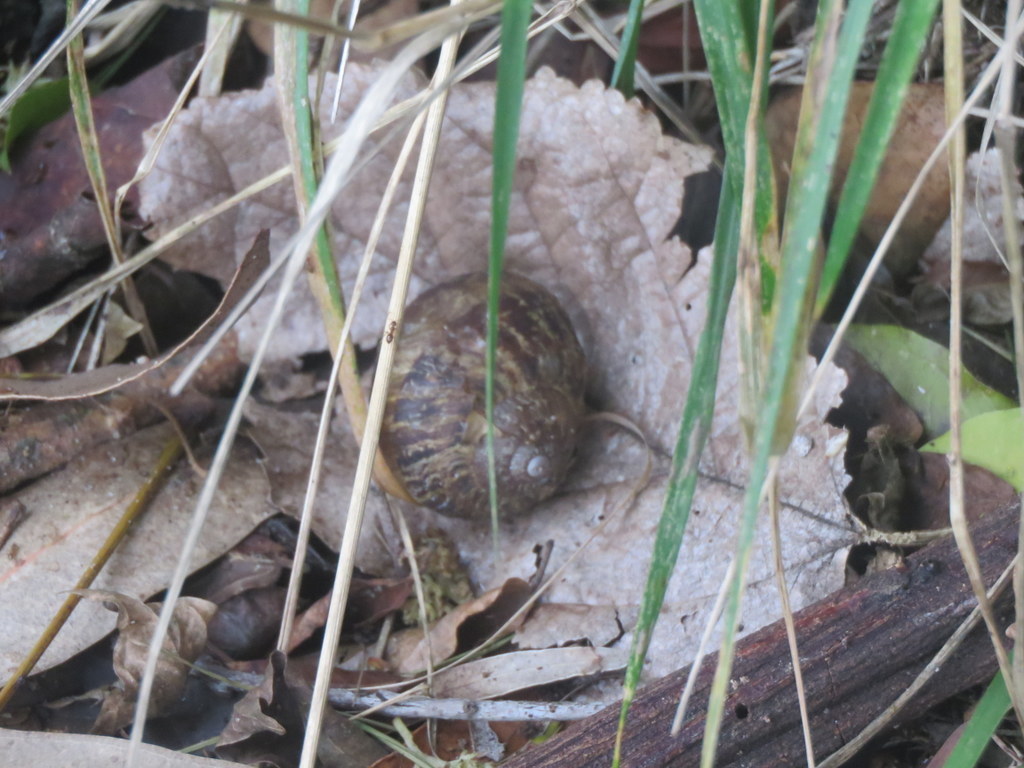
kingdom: Animalia
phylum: Mollusca
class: Gastropoda
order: Stylommatophora
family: Helicidae
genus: Cornu
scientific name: Cornu aspersum
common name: Brown garden snail
